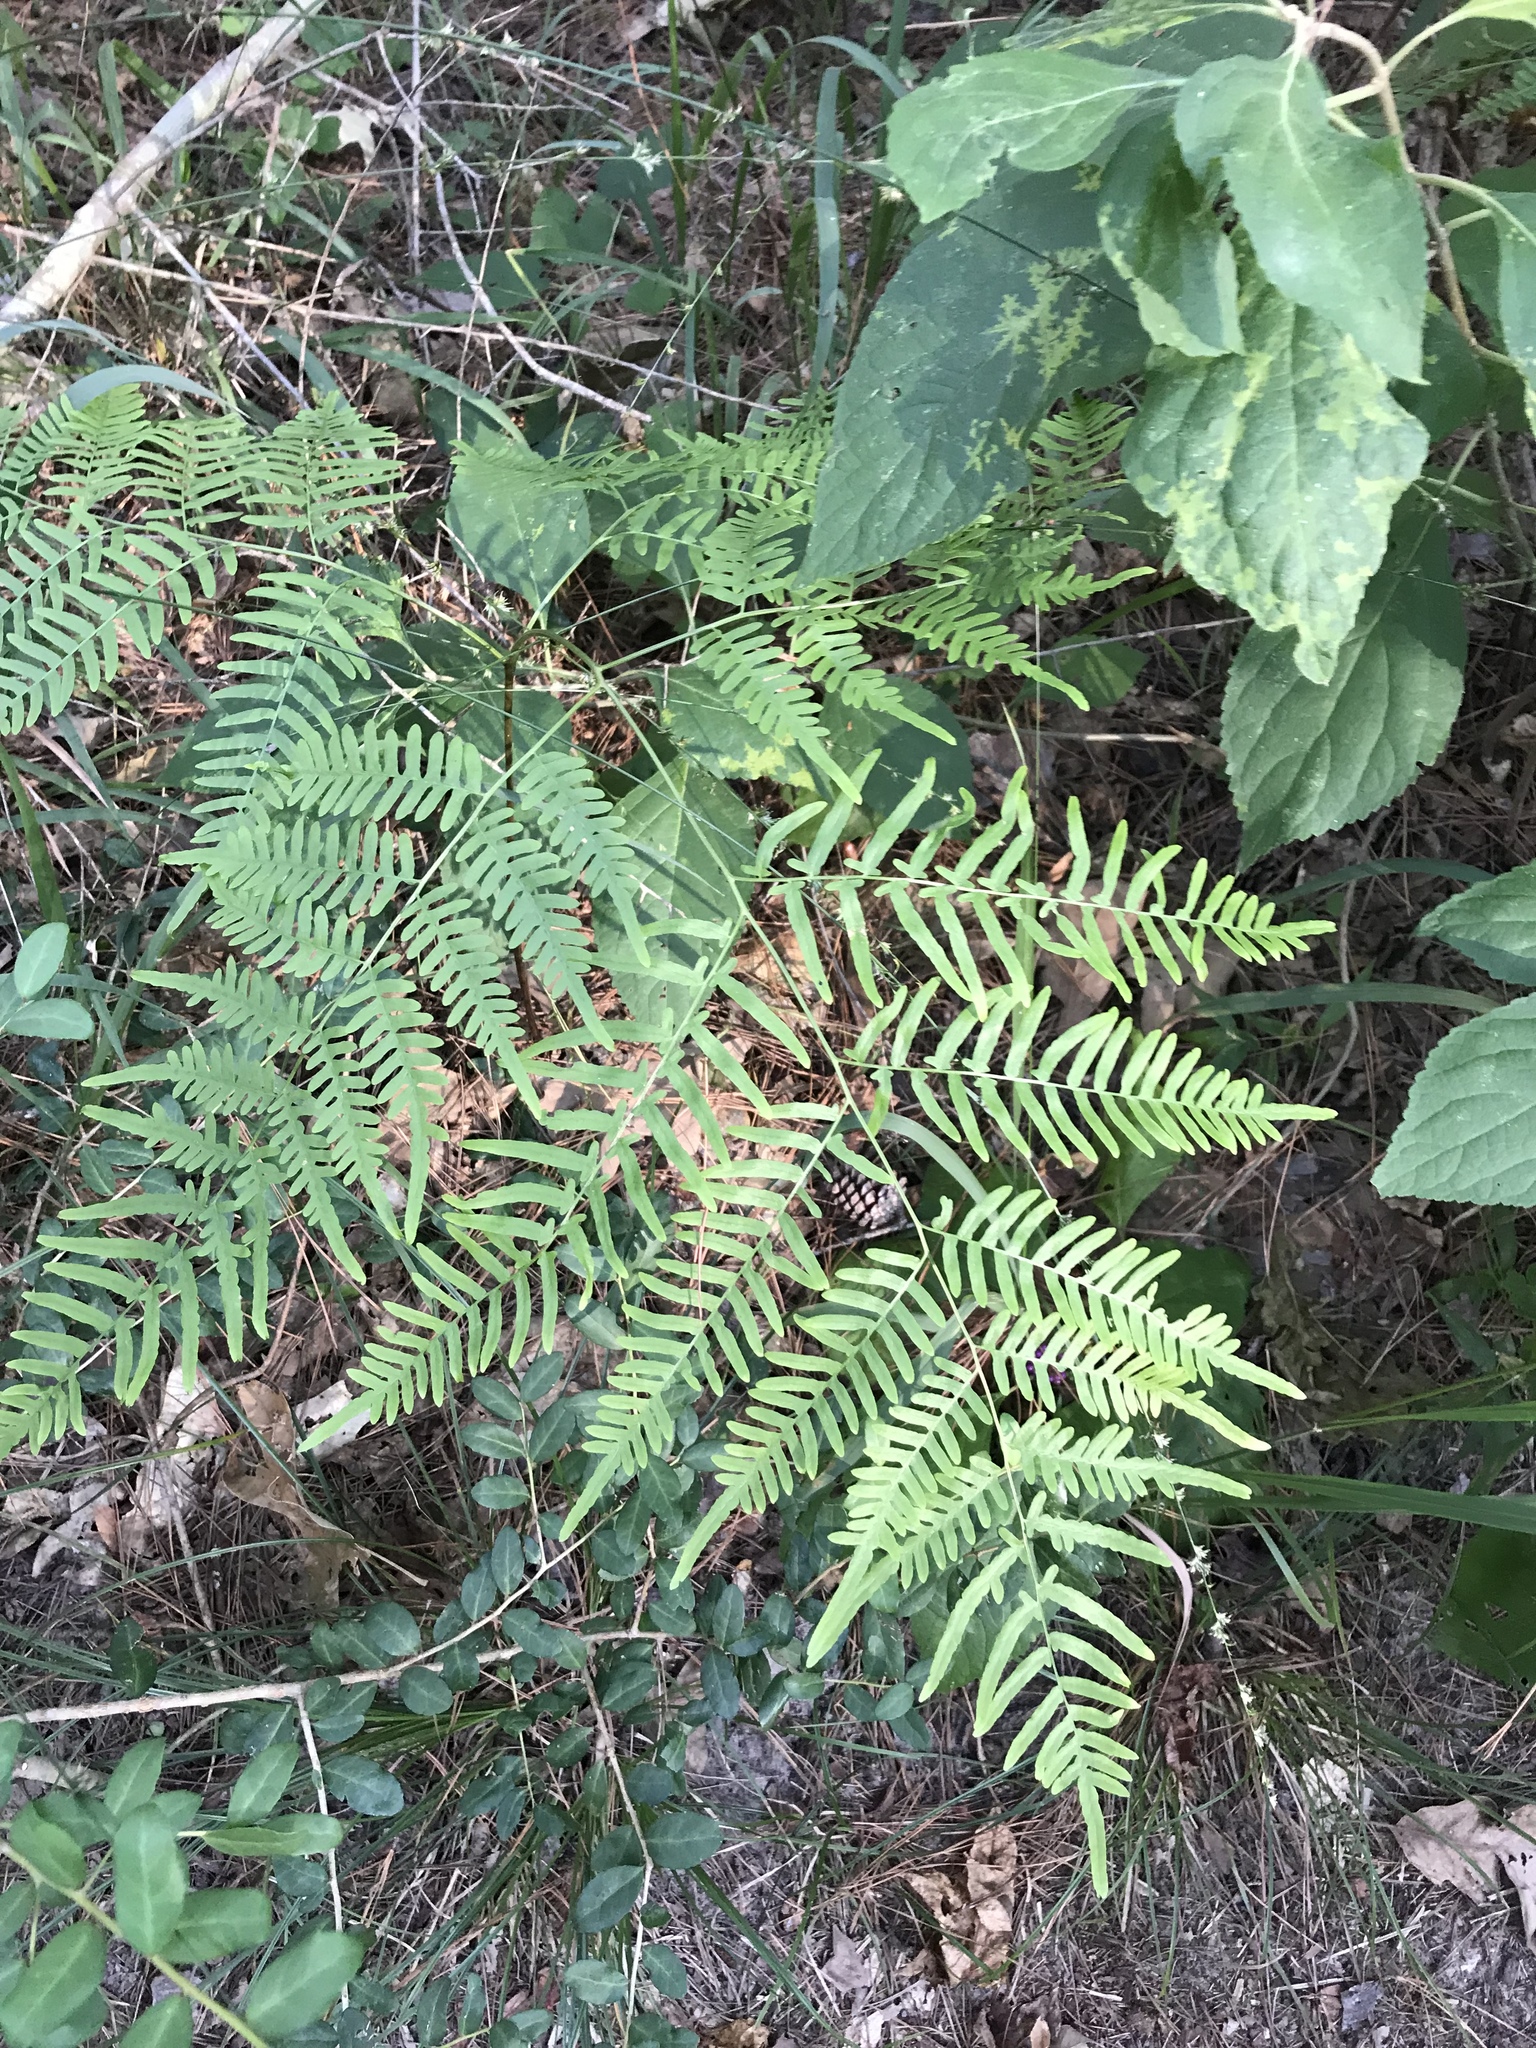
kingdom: Plantae
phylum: Tracheophyta
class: Polypodiopsida
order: Polypodiales
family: Dennstaedtiaceae
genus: Pteridium
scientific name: Pteridium aquilinum
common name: Bracken
